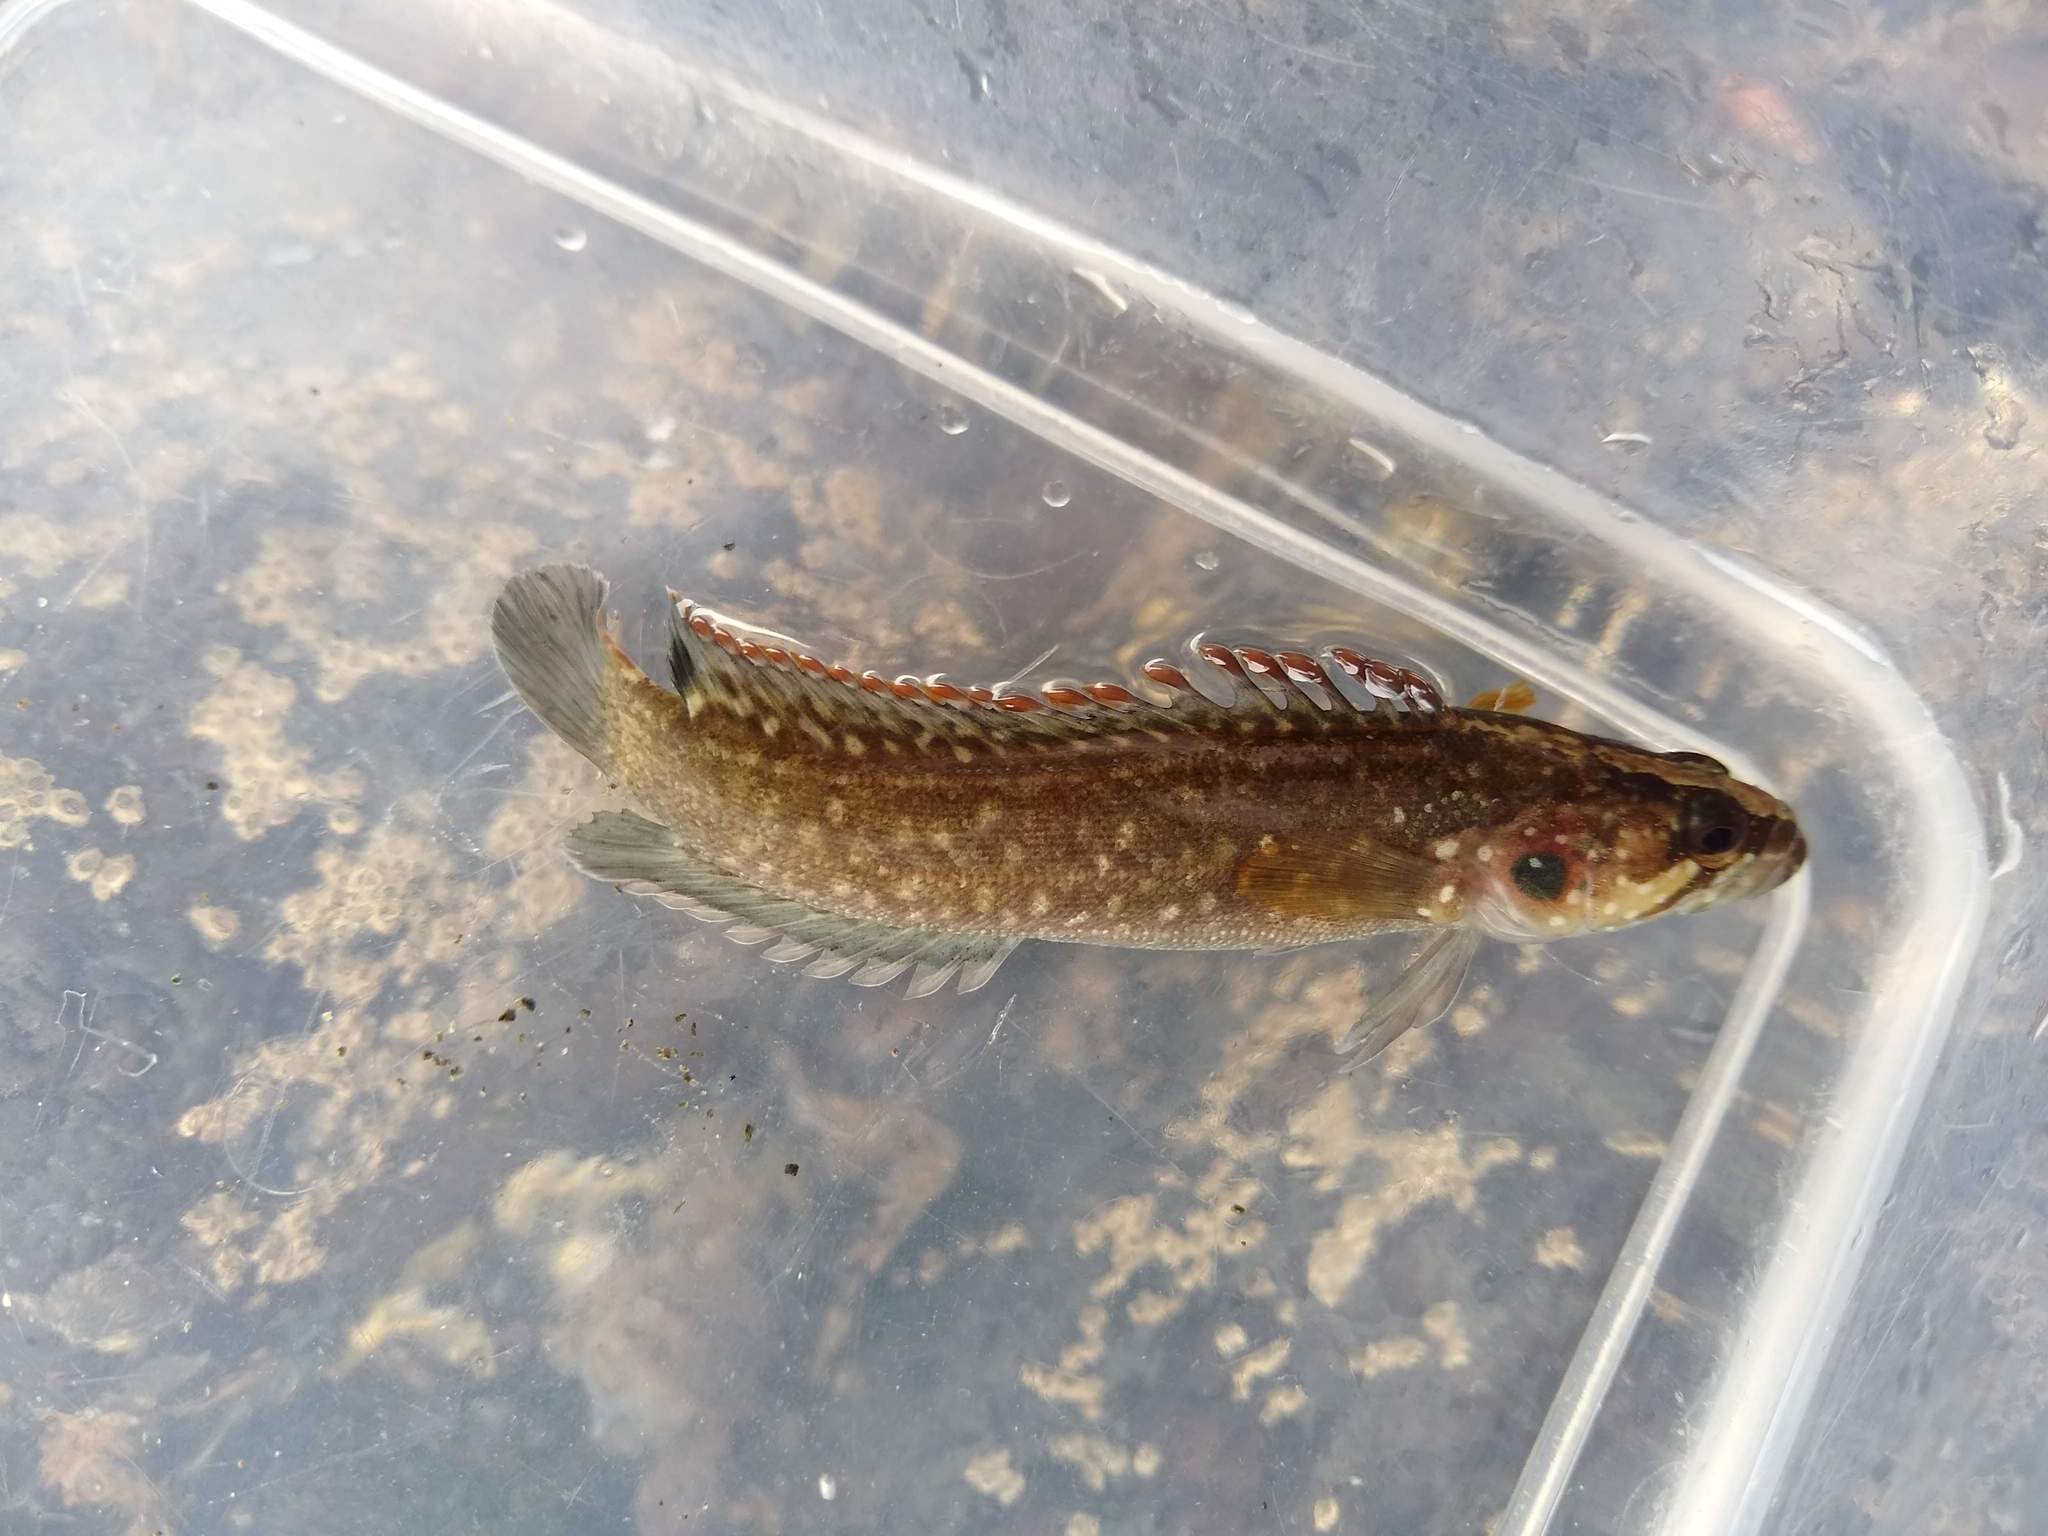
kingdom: Animalia
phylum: Chordata
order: Perciformes
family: Plesiopidae
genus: Acanthoclinus
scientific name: Acanthoclinus fuscus
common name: Olive rockfish
